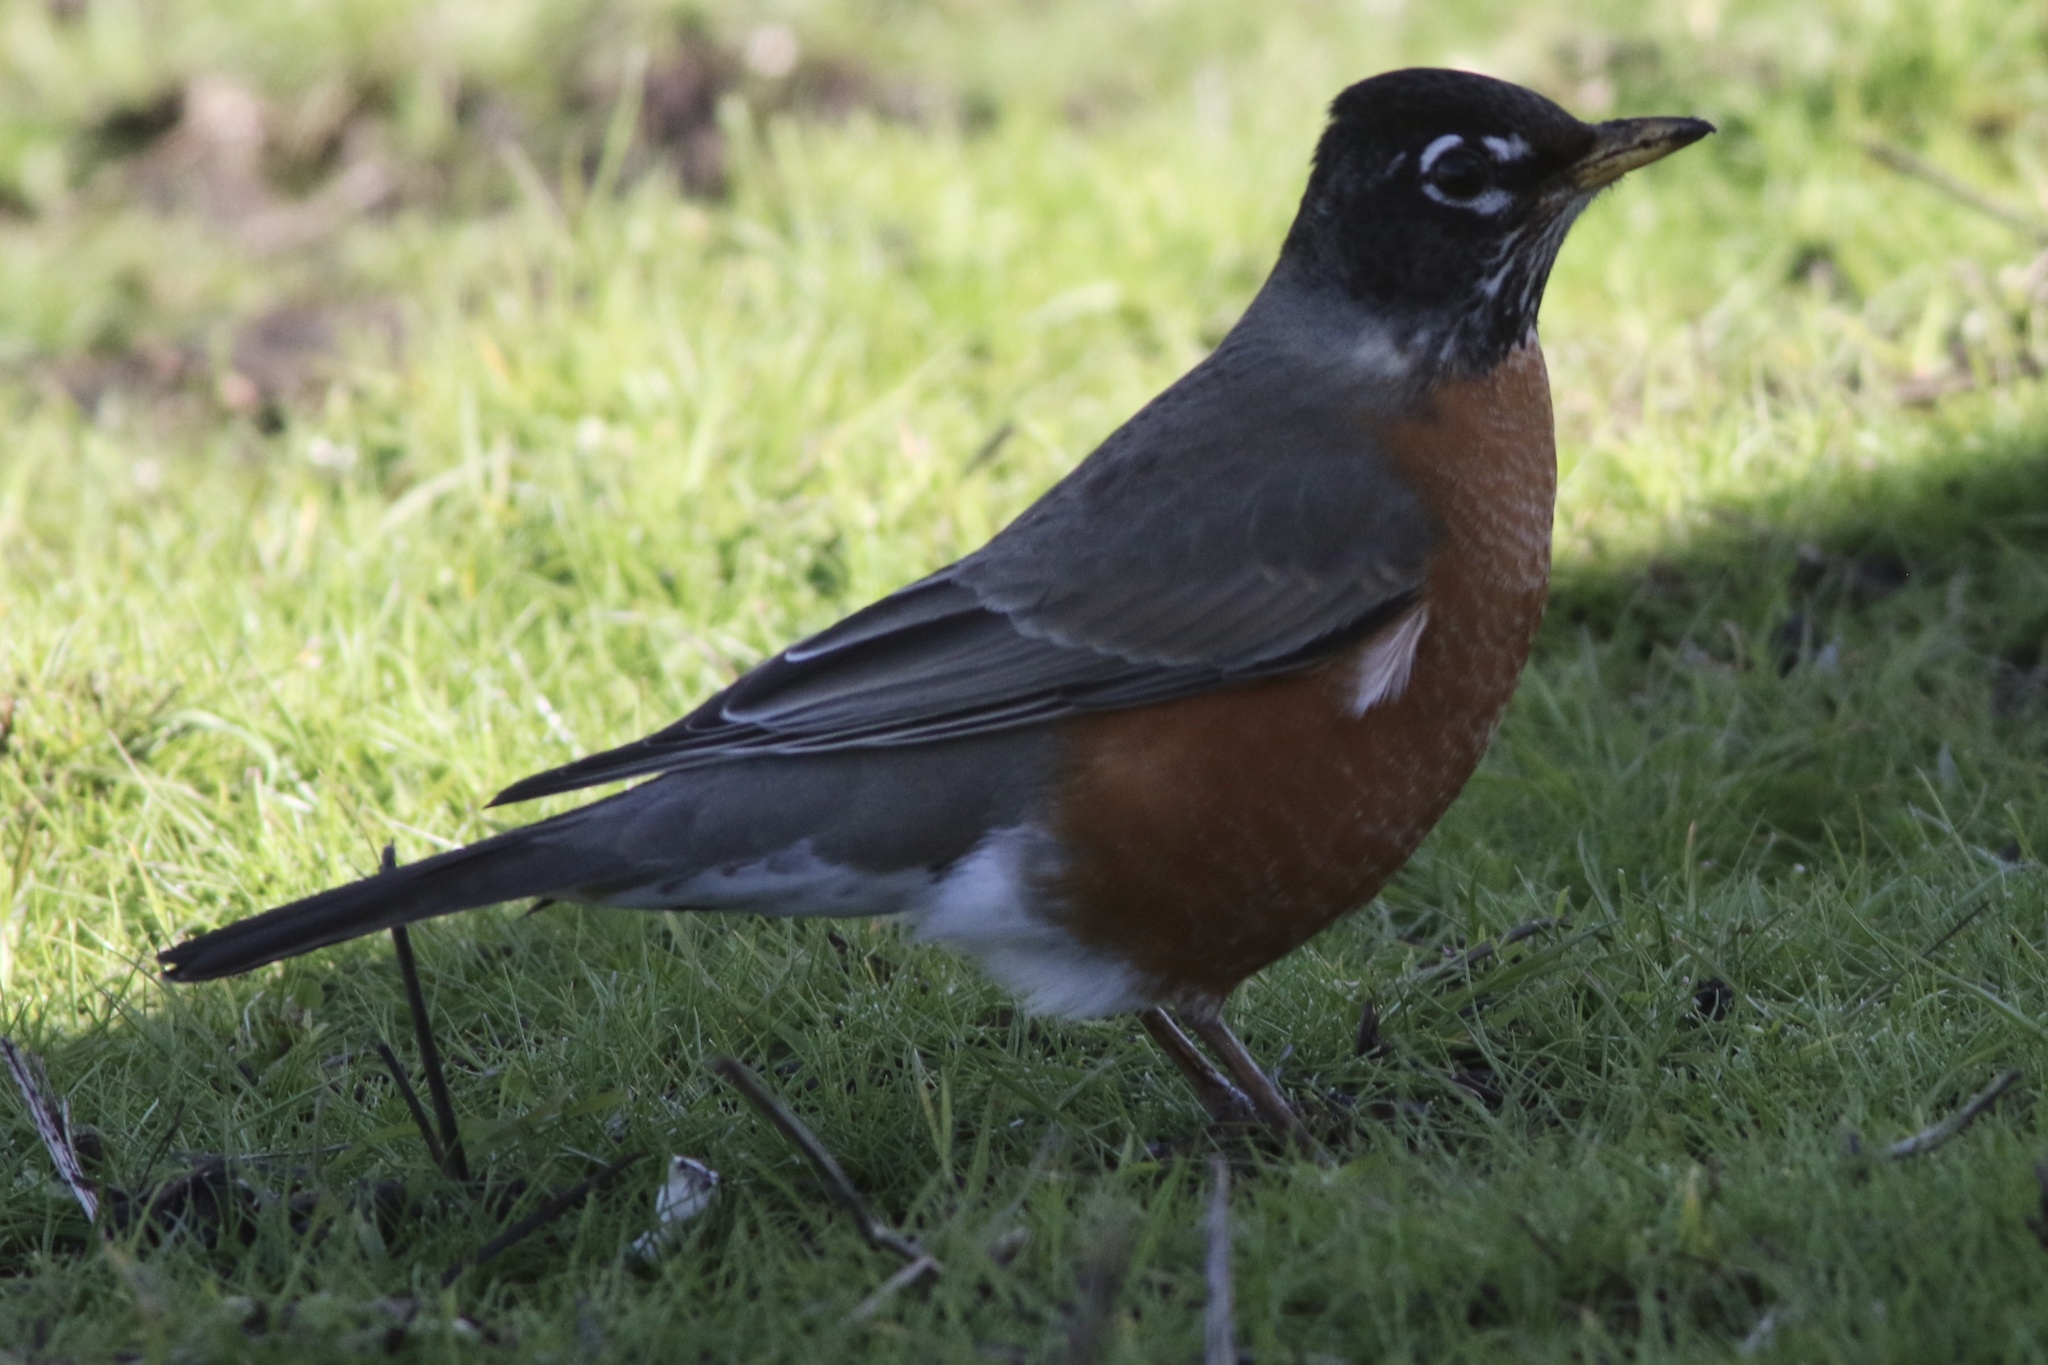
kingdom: Animalia
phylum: Chordata
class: Aves
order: Passeriformes
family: Turdidae
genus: Turdus
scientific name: Turdus migratorius
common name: American robin
